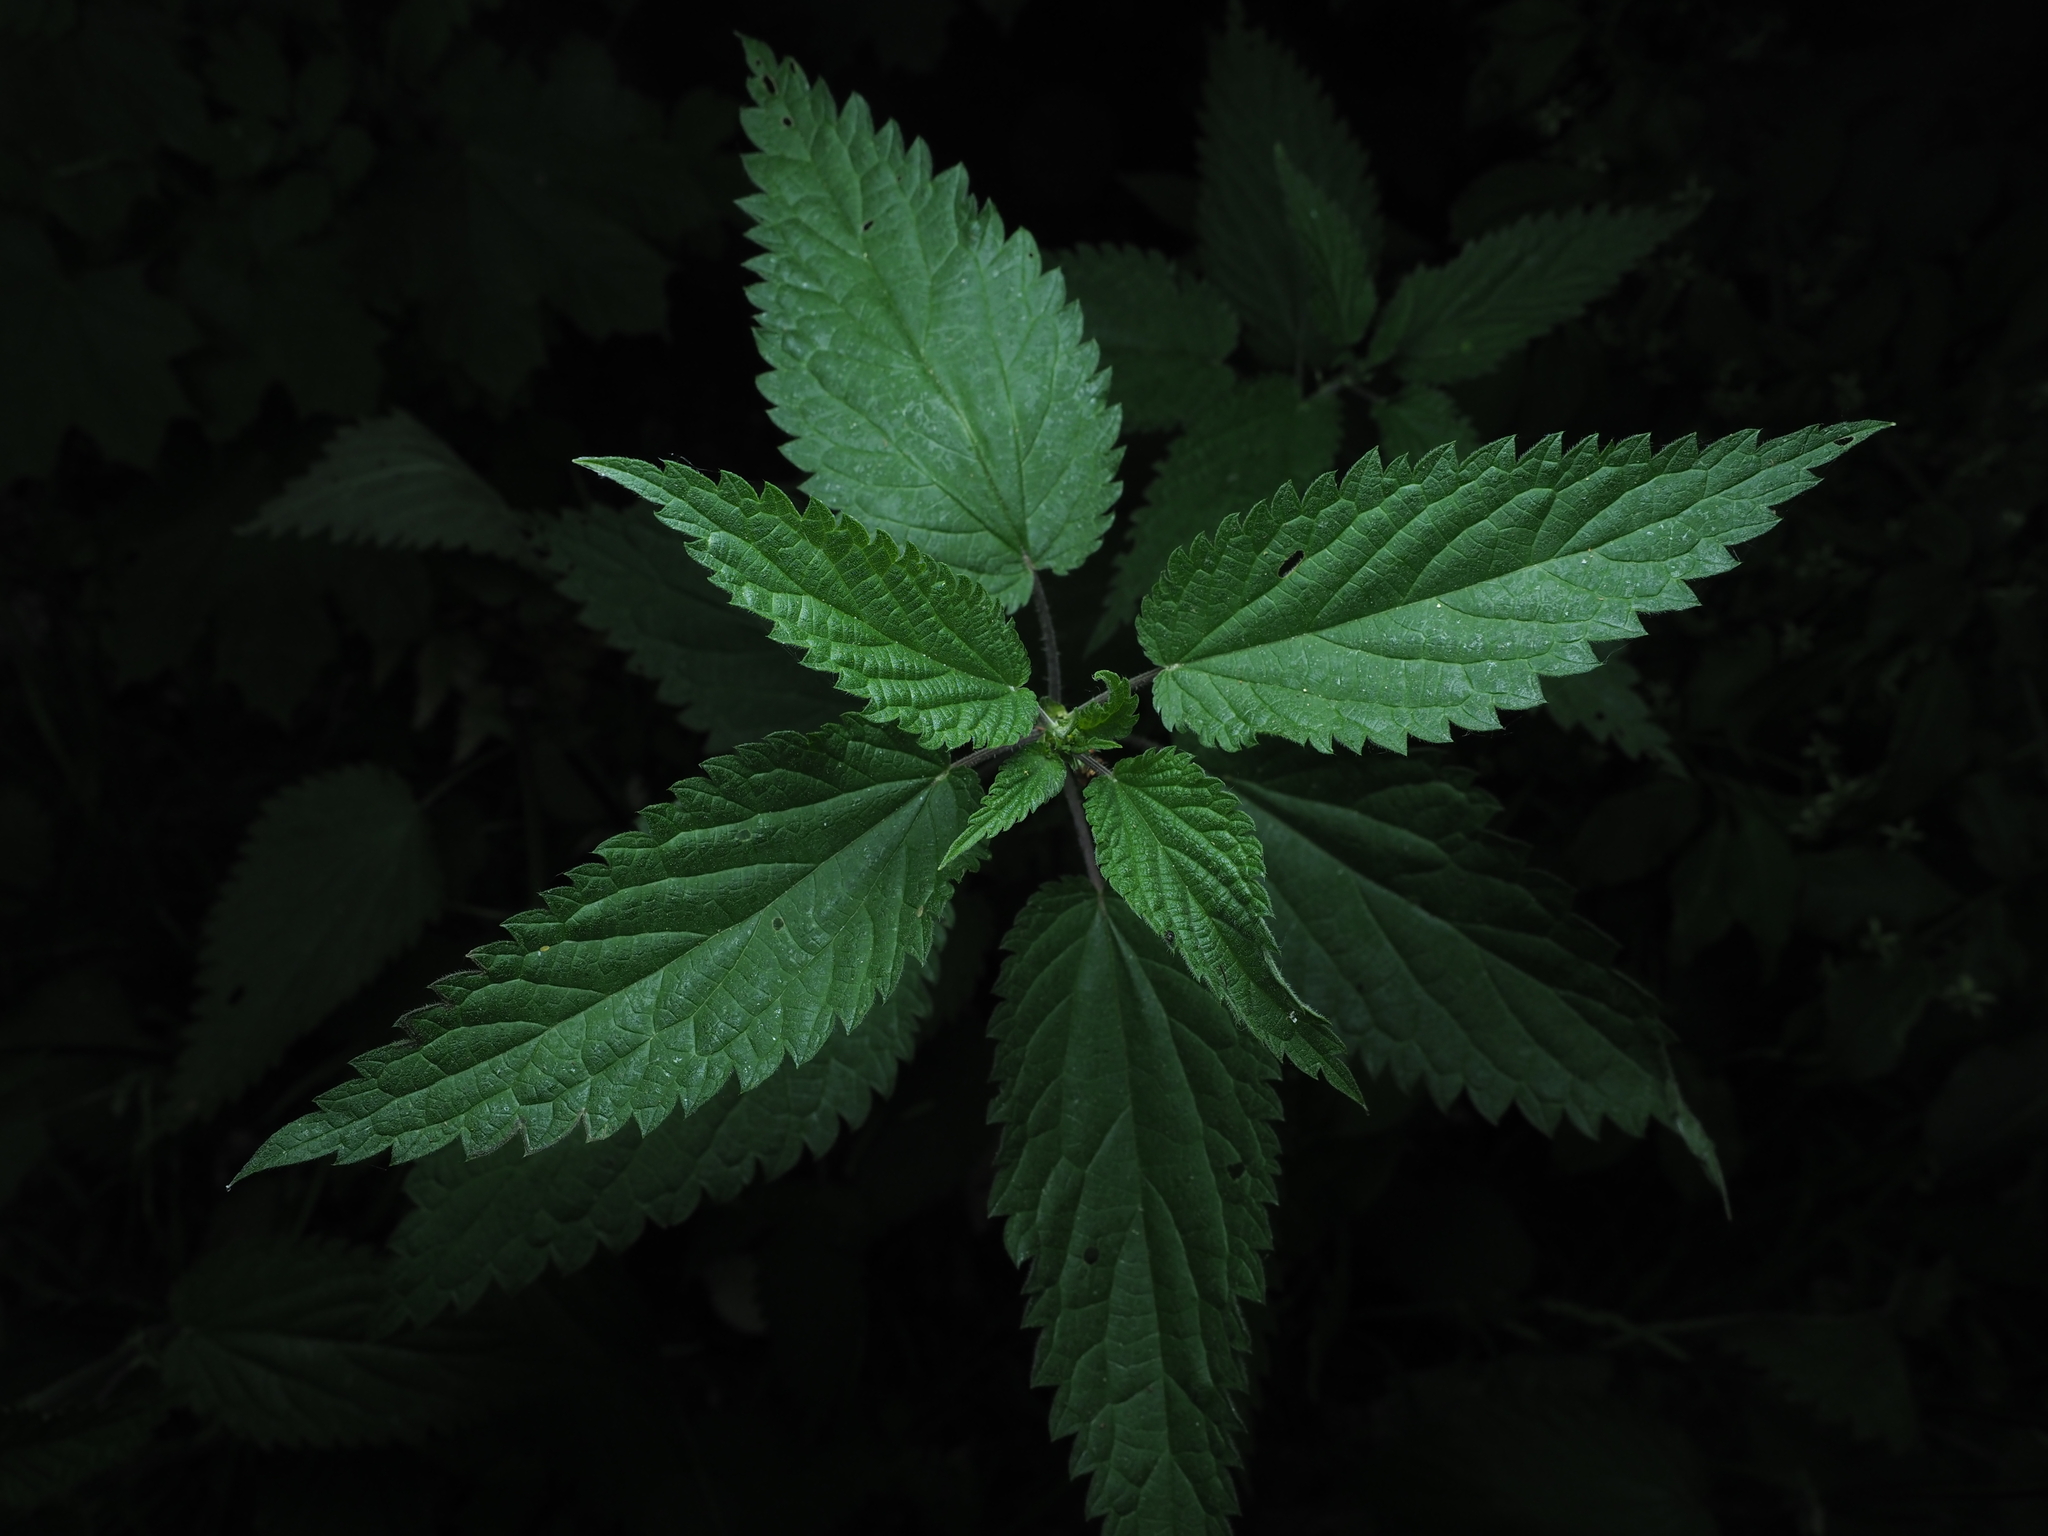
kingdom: Plantae
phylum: Tracheophyta
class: Magnoliopsida
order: Rosales
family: Urticaceae
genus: Urtica
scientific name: Urtica dioica
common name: Common nettle
